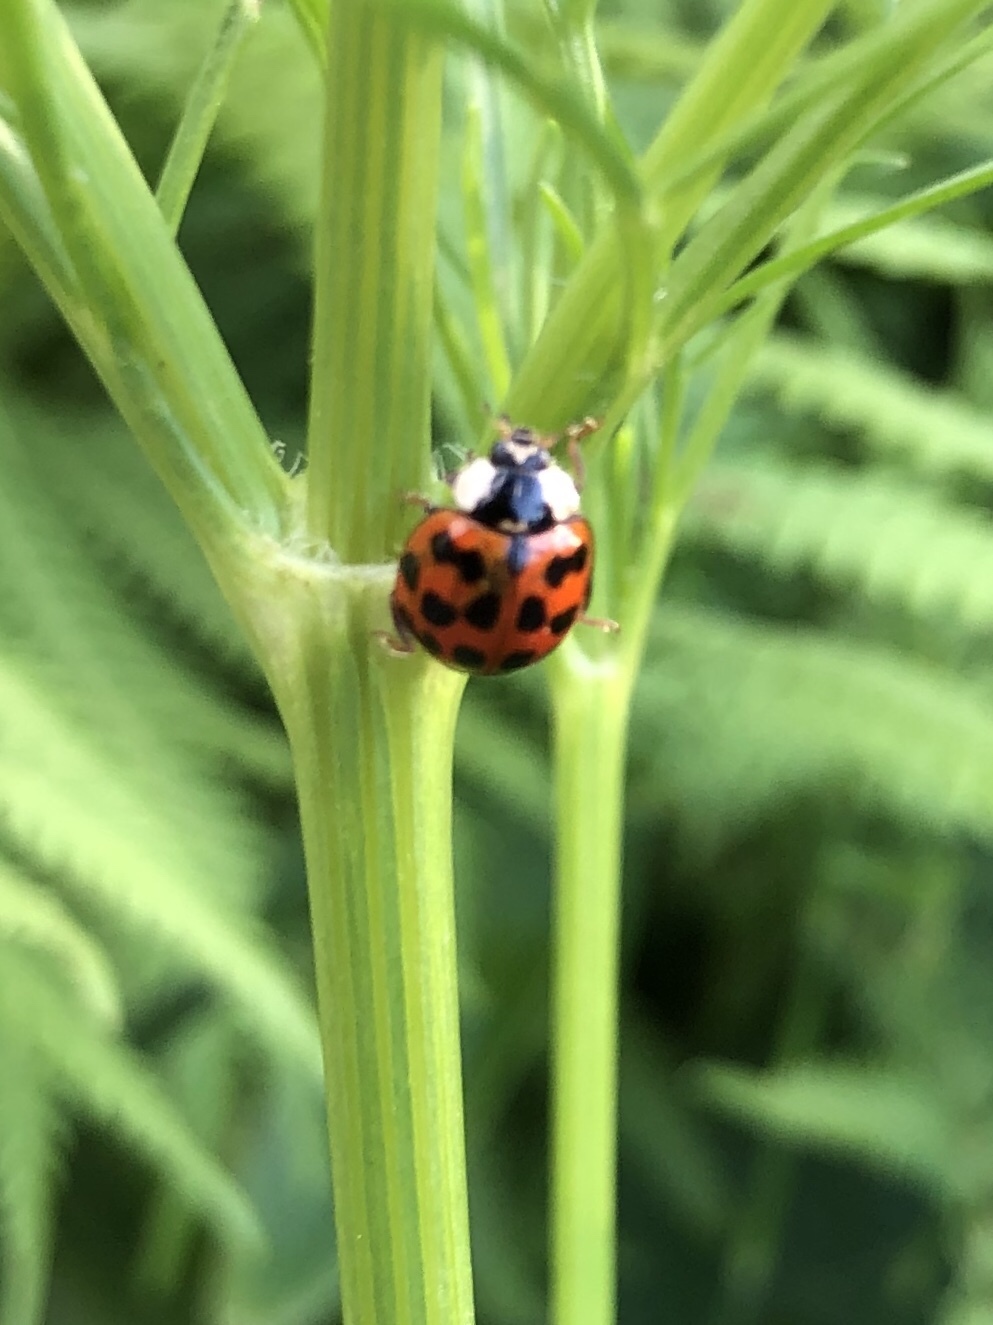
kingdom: Animalia
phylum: Arthropoda
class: Insecta
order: Coleoptera
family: Coccinellidae
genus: Harmonia
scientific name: Harmonia axyridis
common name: Harlequin ladybird
